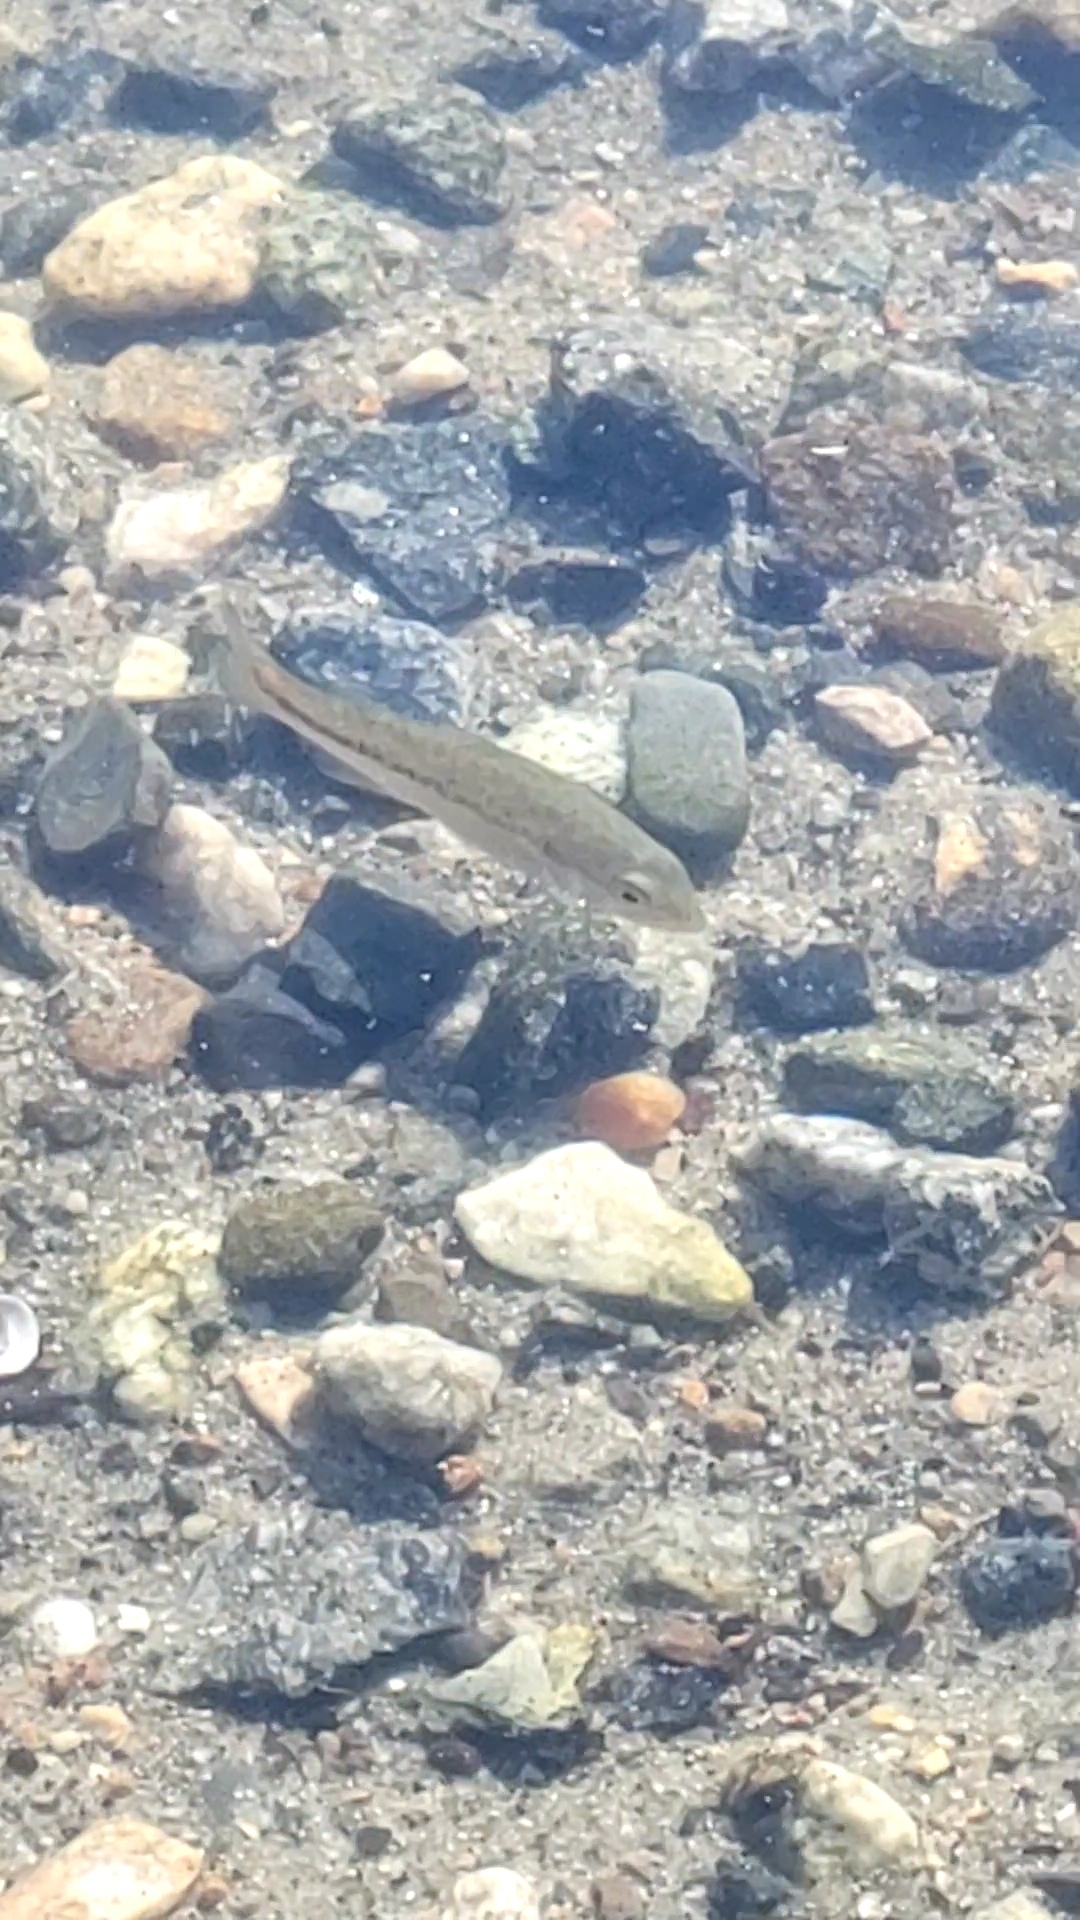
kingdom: Animalia
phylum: Chordata
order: Perciformes
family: Centrarchidae
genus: Micropterus
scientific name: Micropterus
